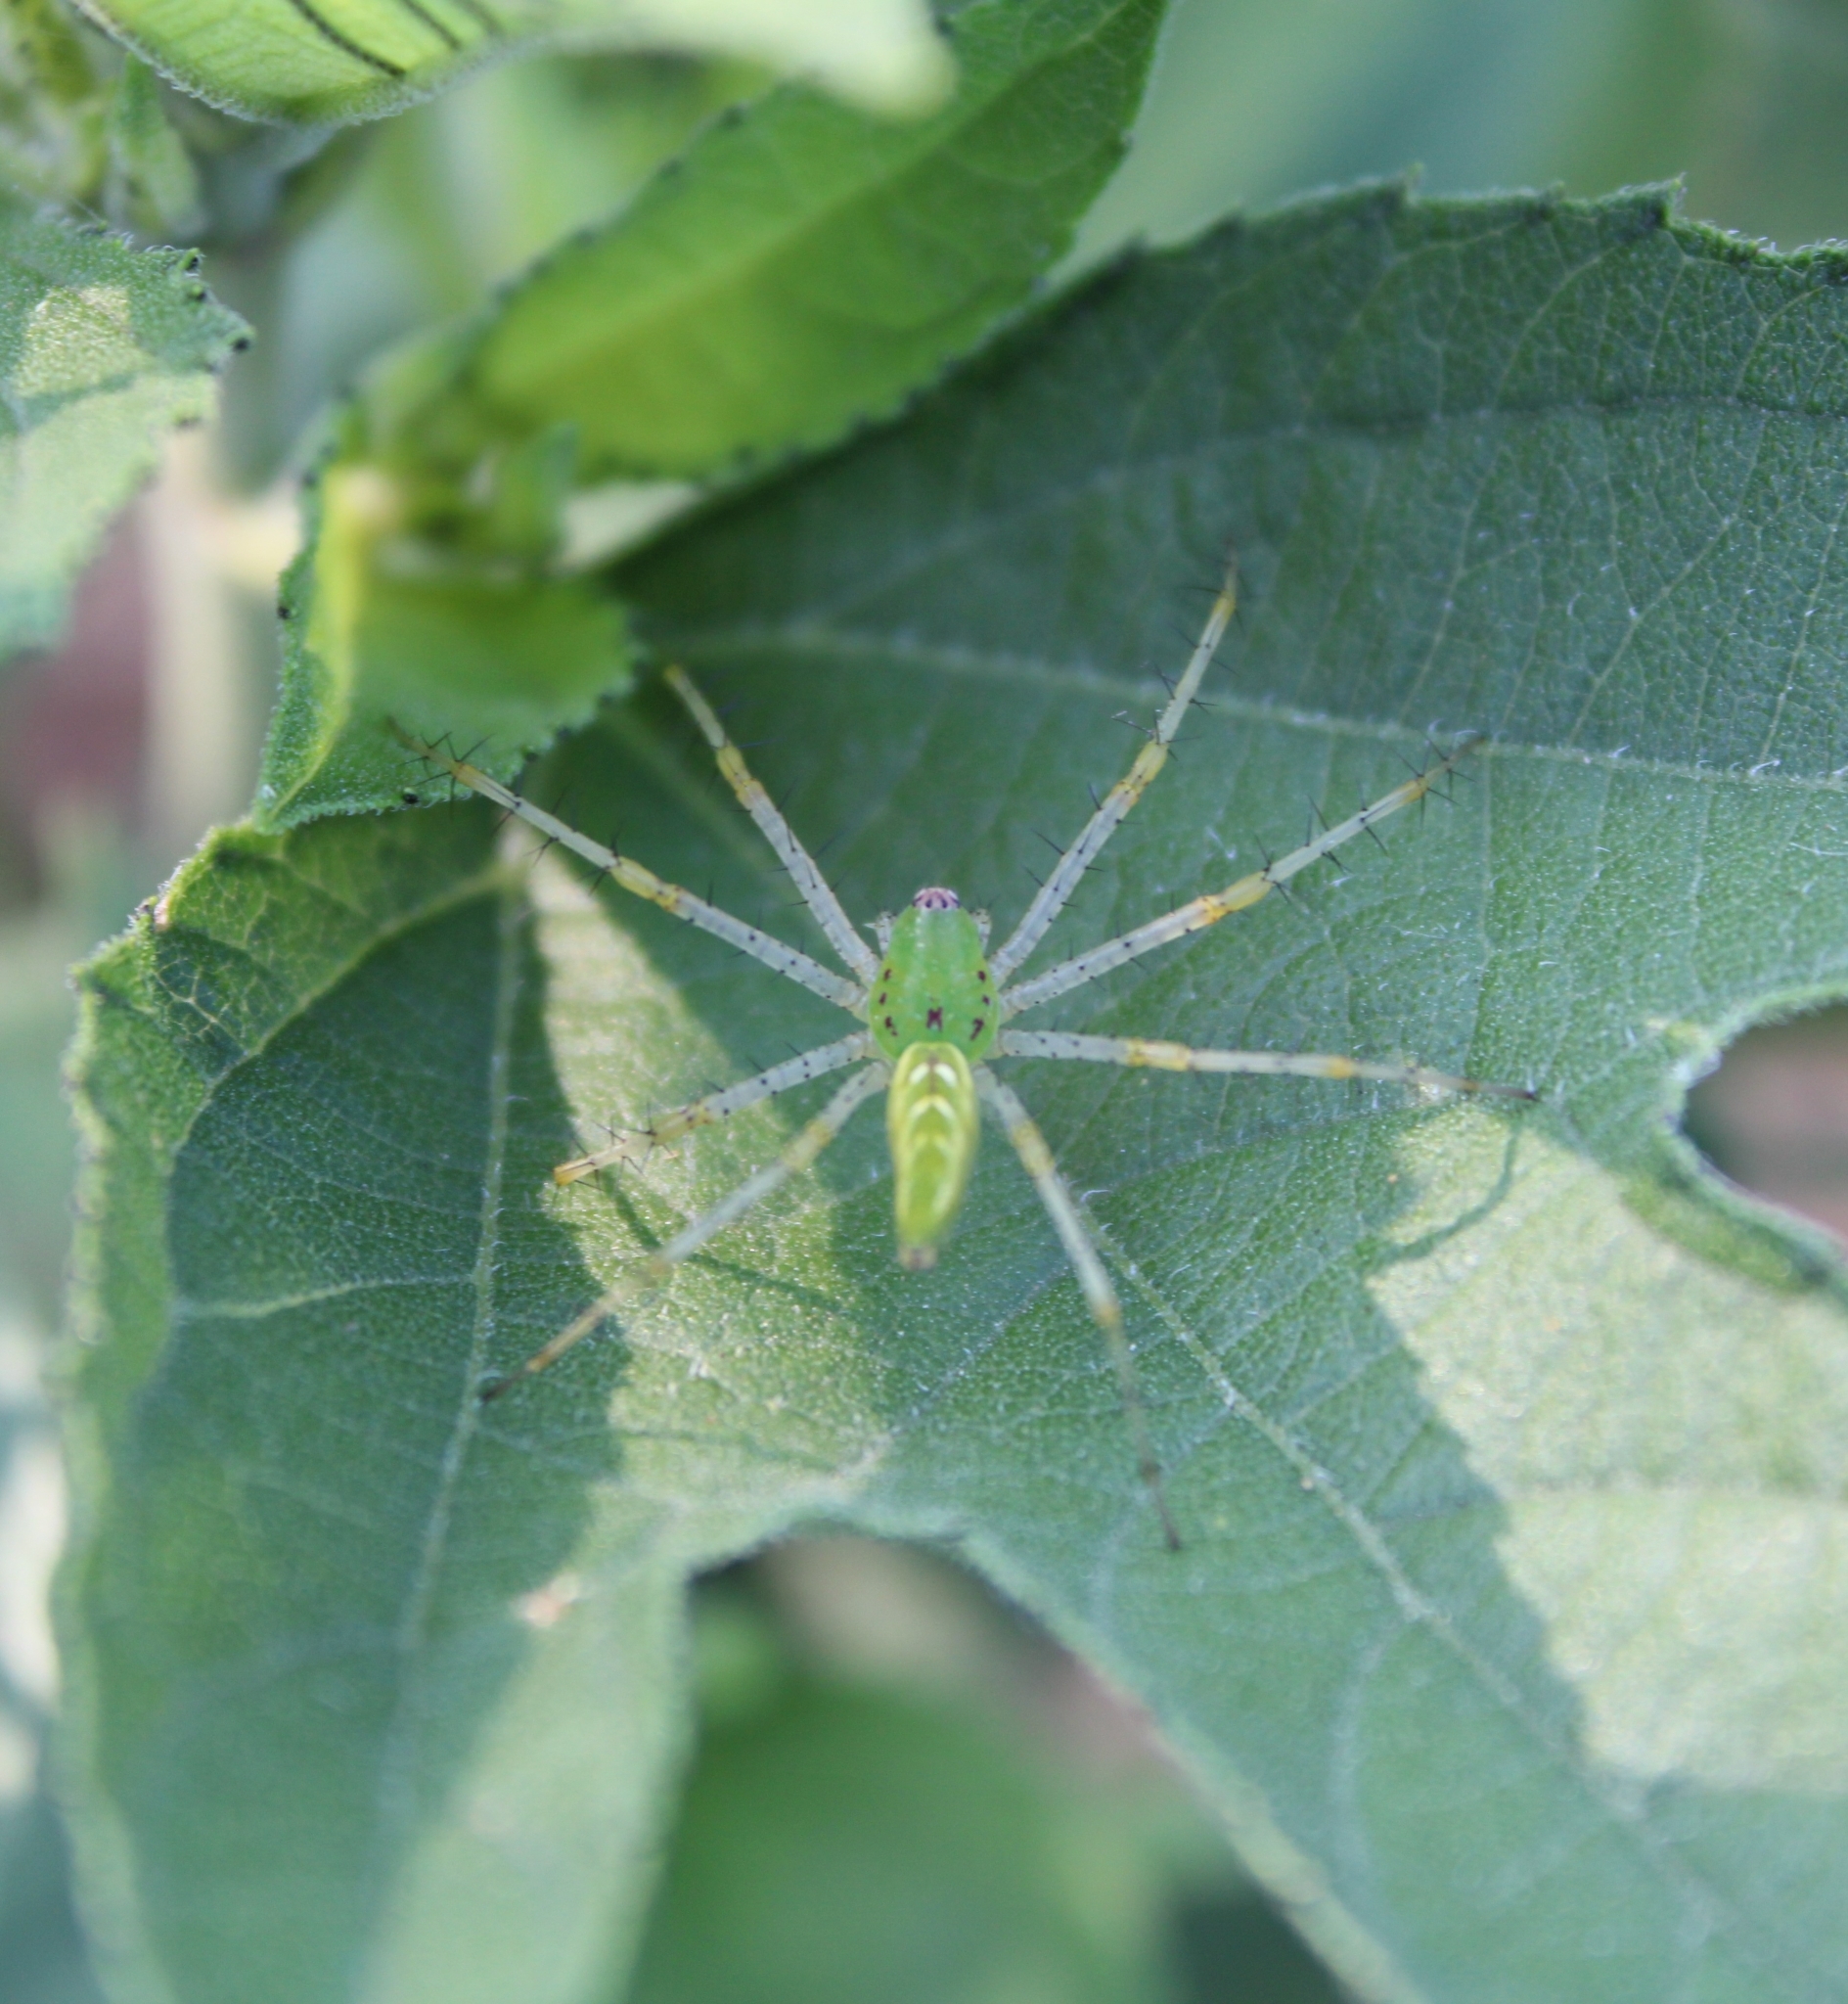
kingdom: Animalia
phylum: Arthropoda
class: Arachnida
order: Araneae
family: Oxyopidae
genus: Peucetia
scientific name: Peucetia viridans
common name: Lynx spiders
